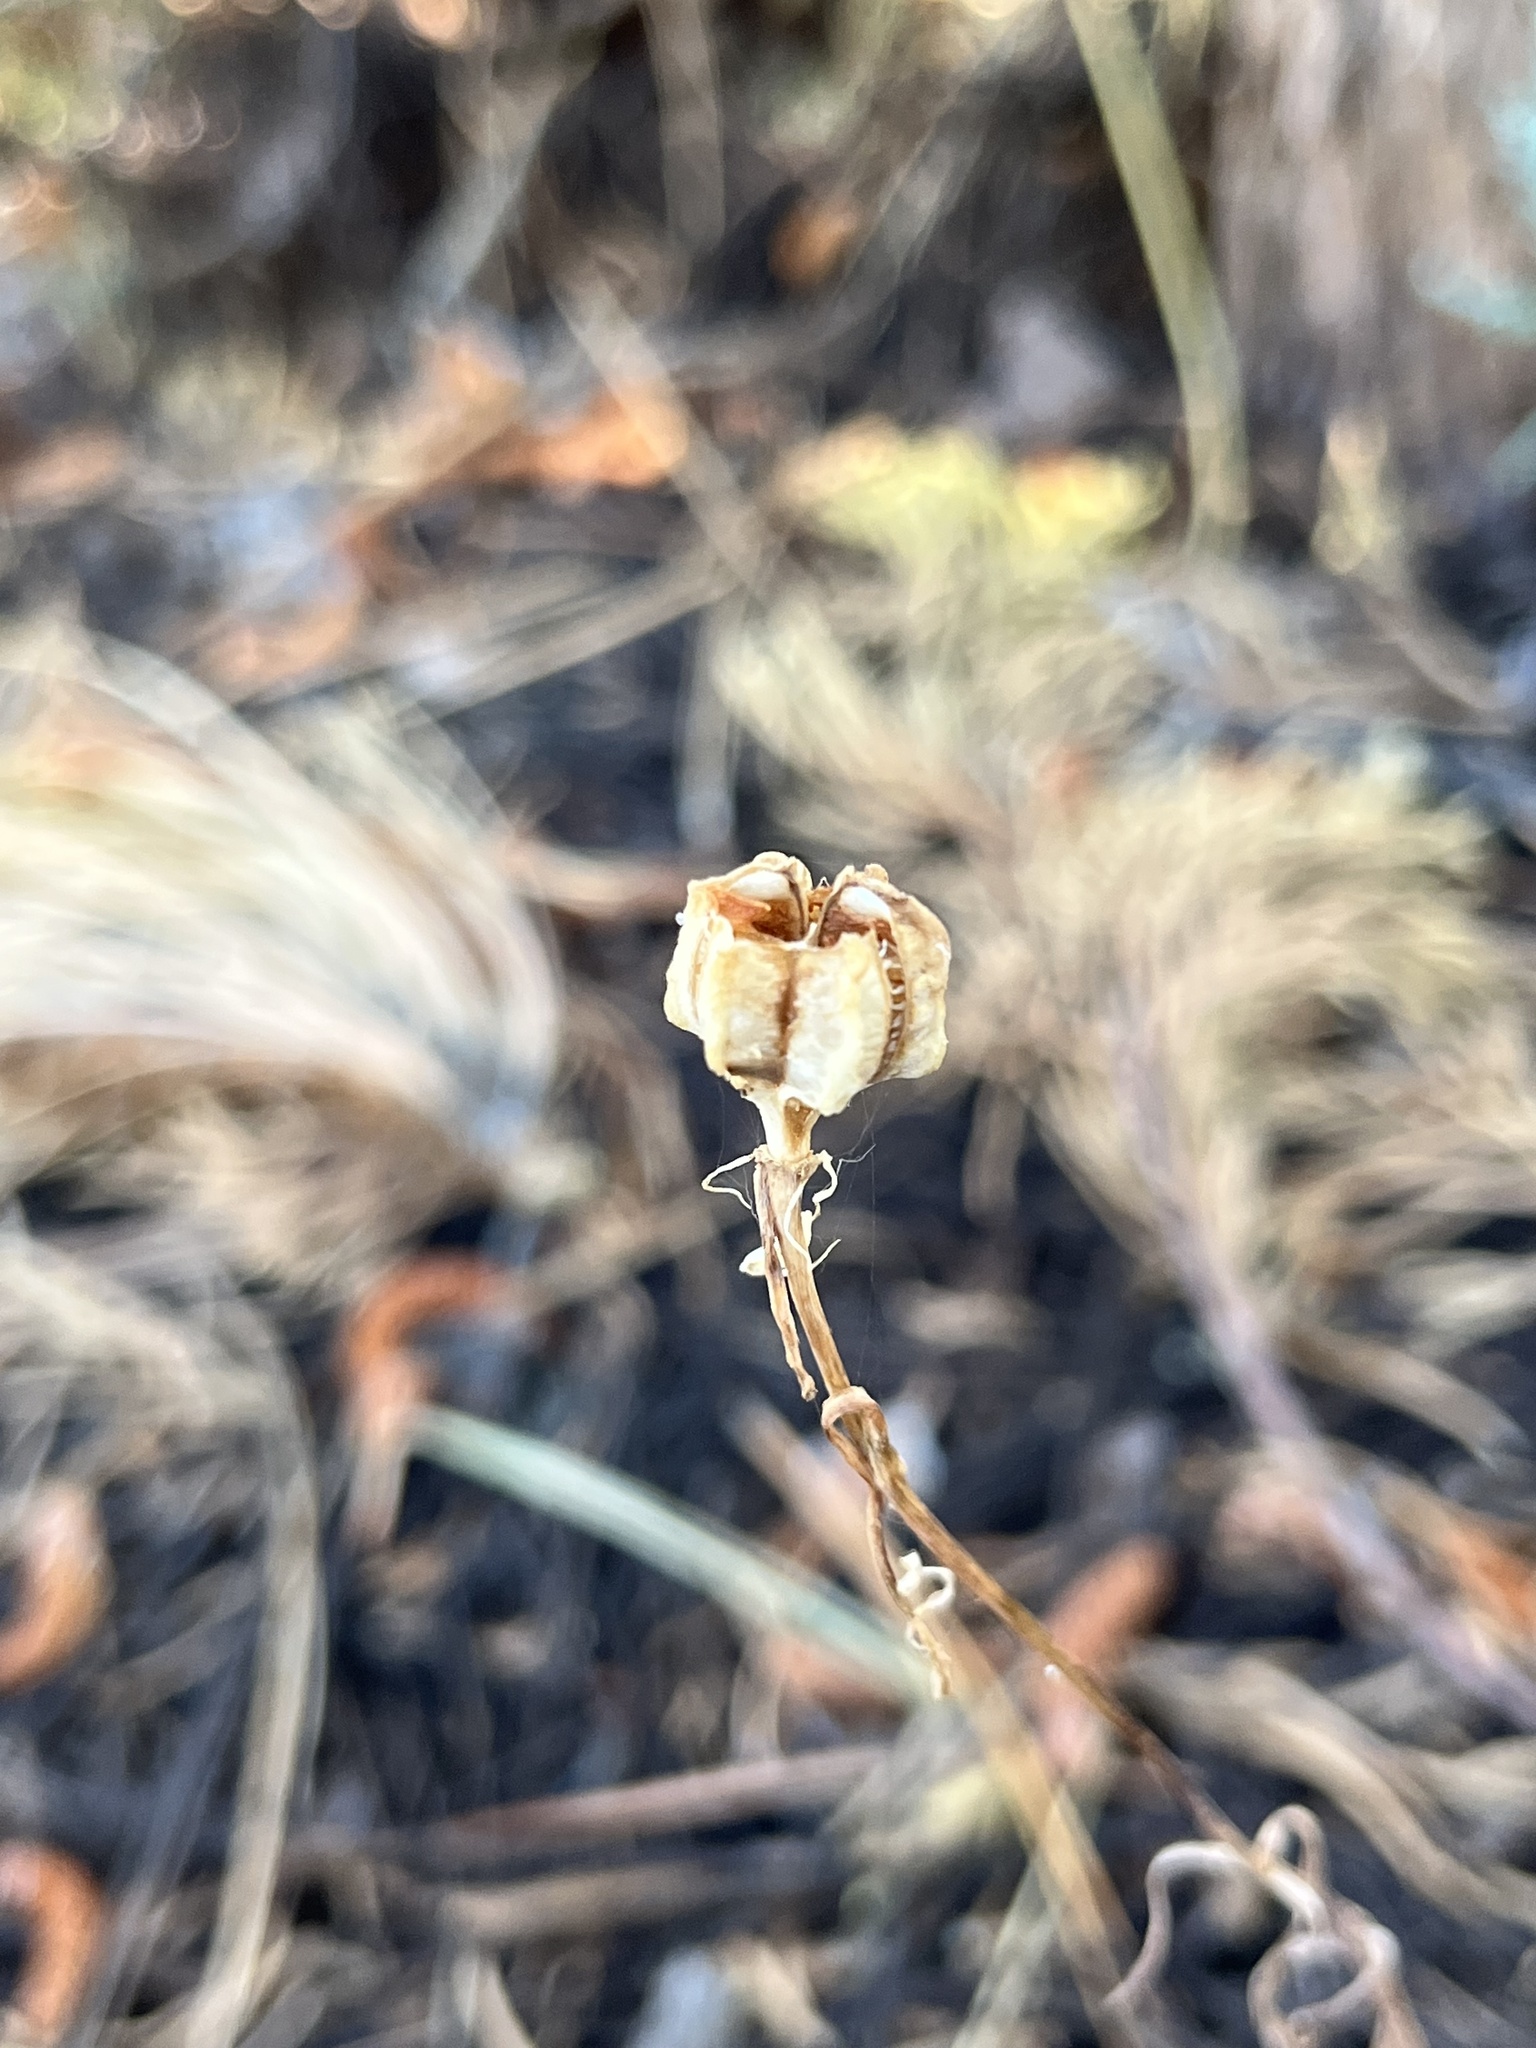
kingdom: Plantae
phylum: Tracheophyta
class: Liliopsida
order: Liliales
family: Liliaceae
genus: Fritillaria
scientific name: Fritillaria atropurpurea
